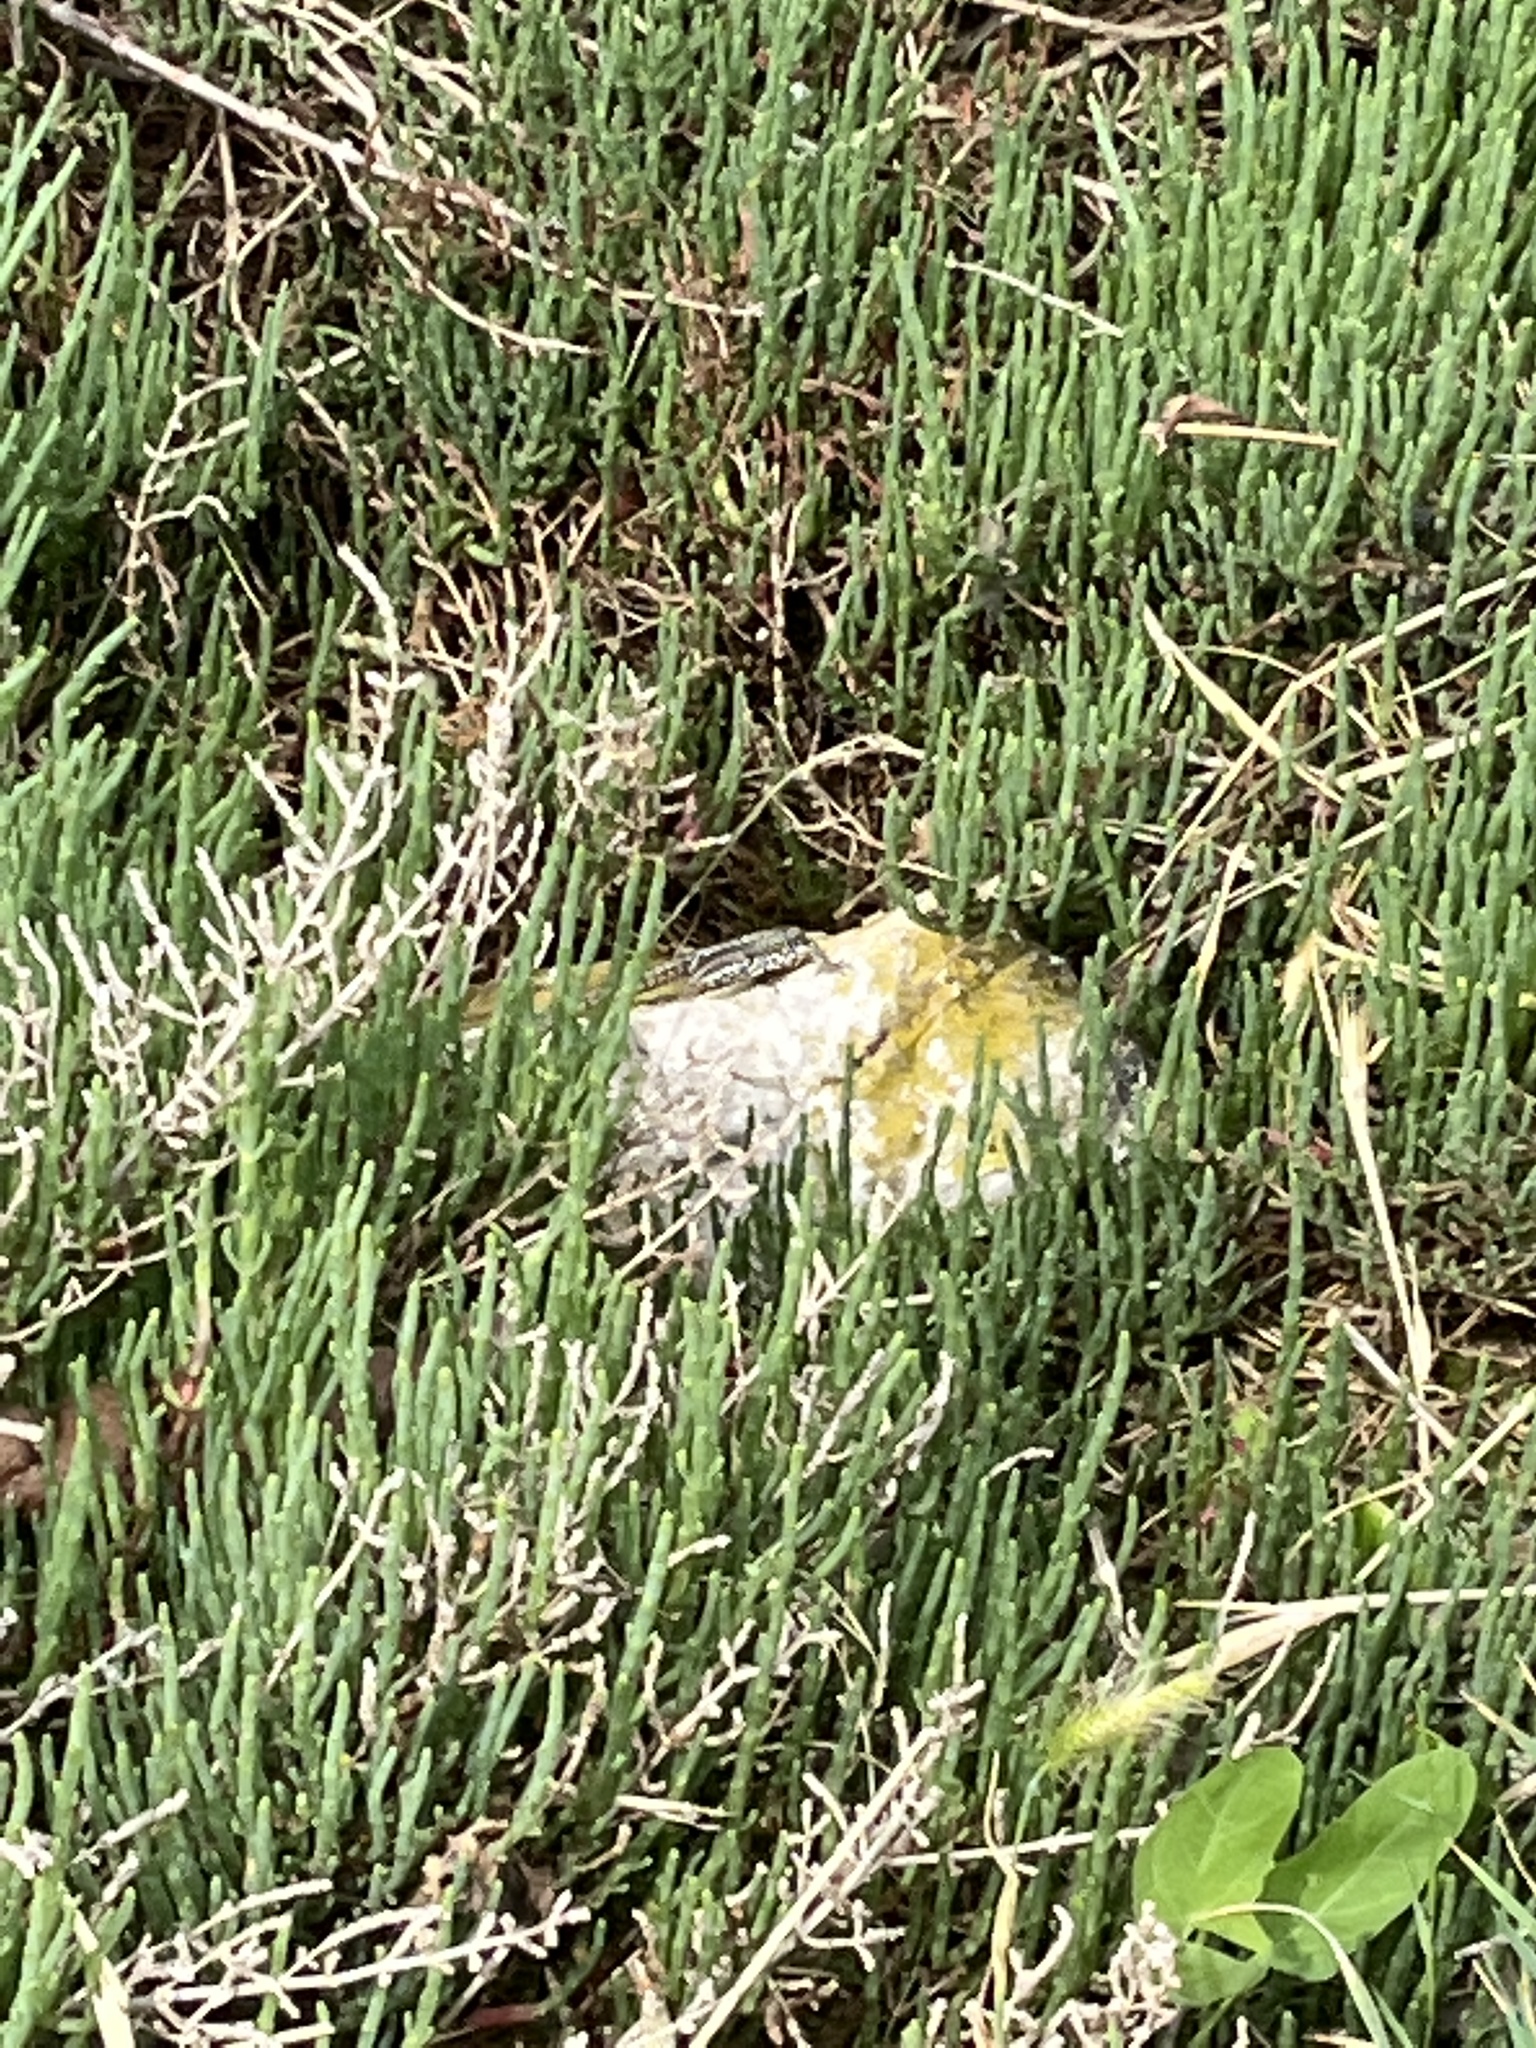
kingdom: Animalia
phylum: Chordata
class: Squamata
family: Lacertidae
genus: Podarcis
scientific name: Podarcis muralis
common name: Common wall lizard
